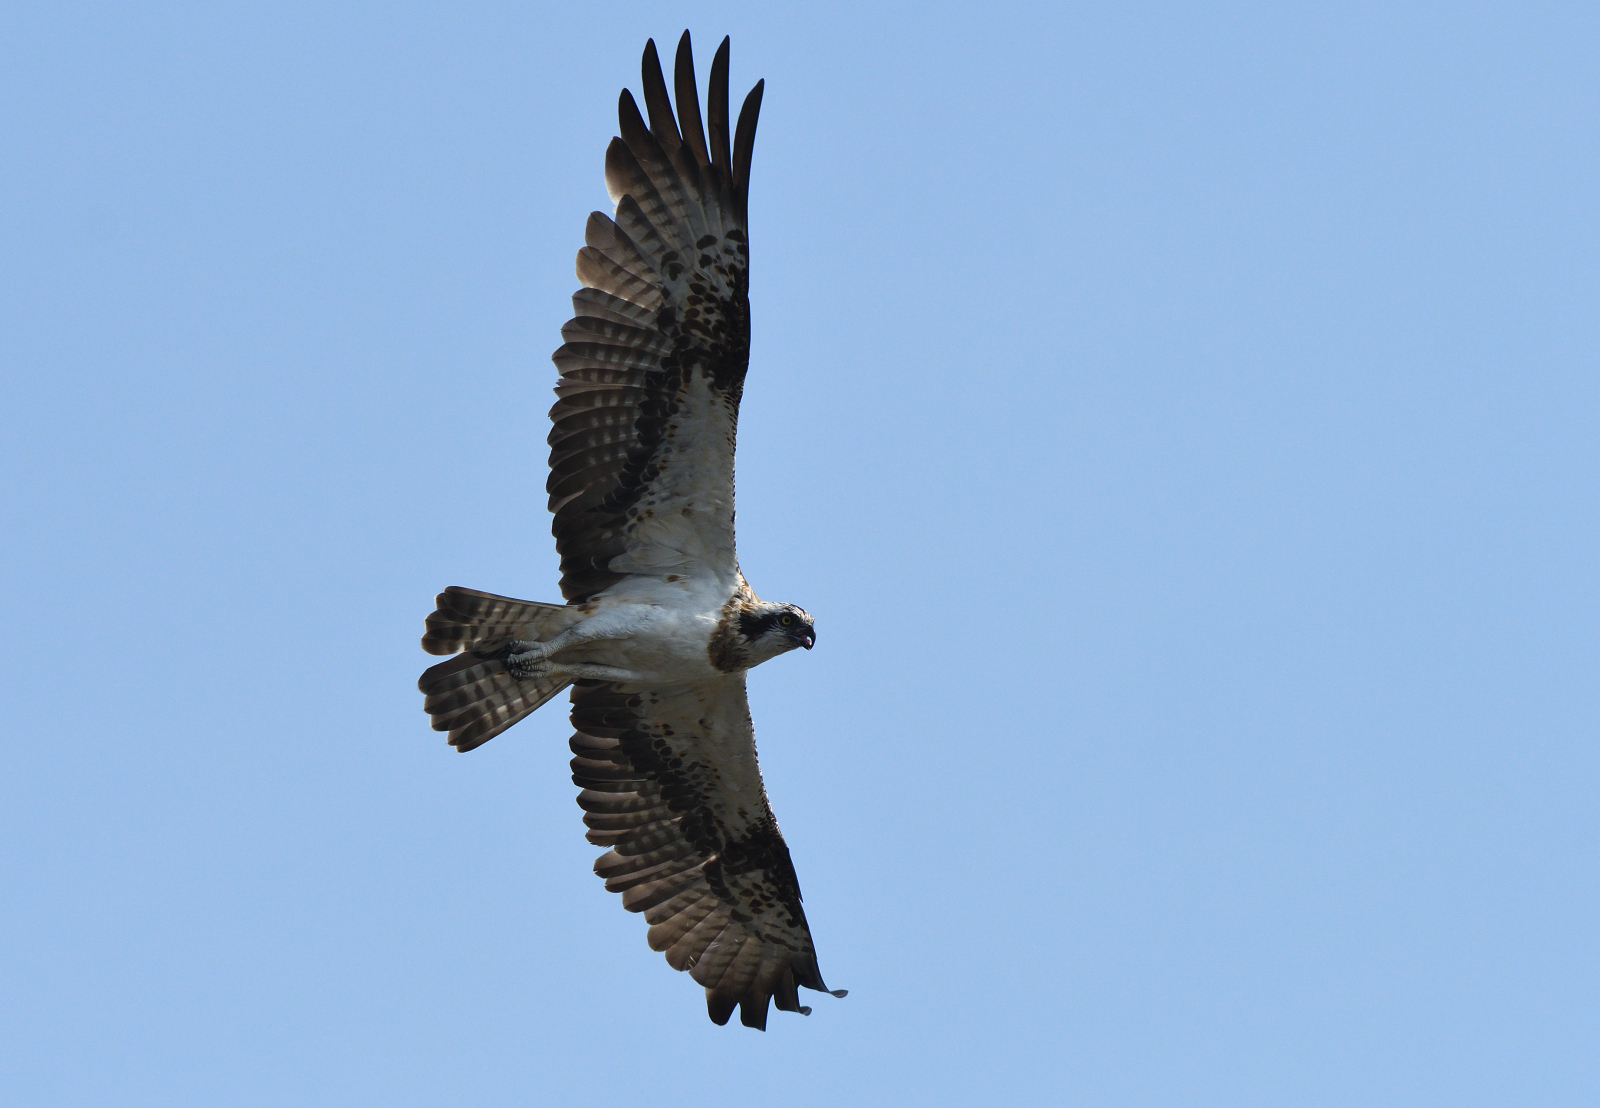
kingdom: Animalia
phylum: Chordata
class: Aves
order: Accipitriformes
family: Pandionidae
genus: Pandion
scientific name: Pandion haliaetus
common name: Osprey
